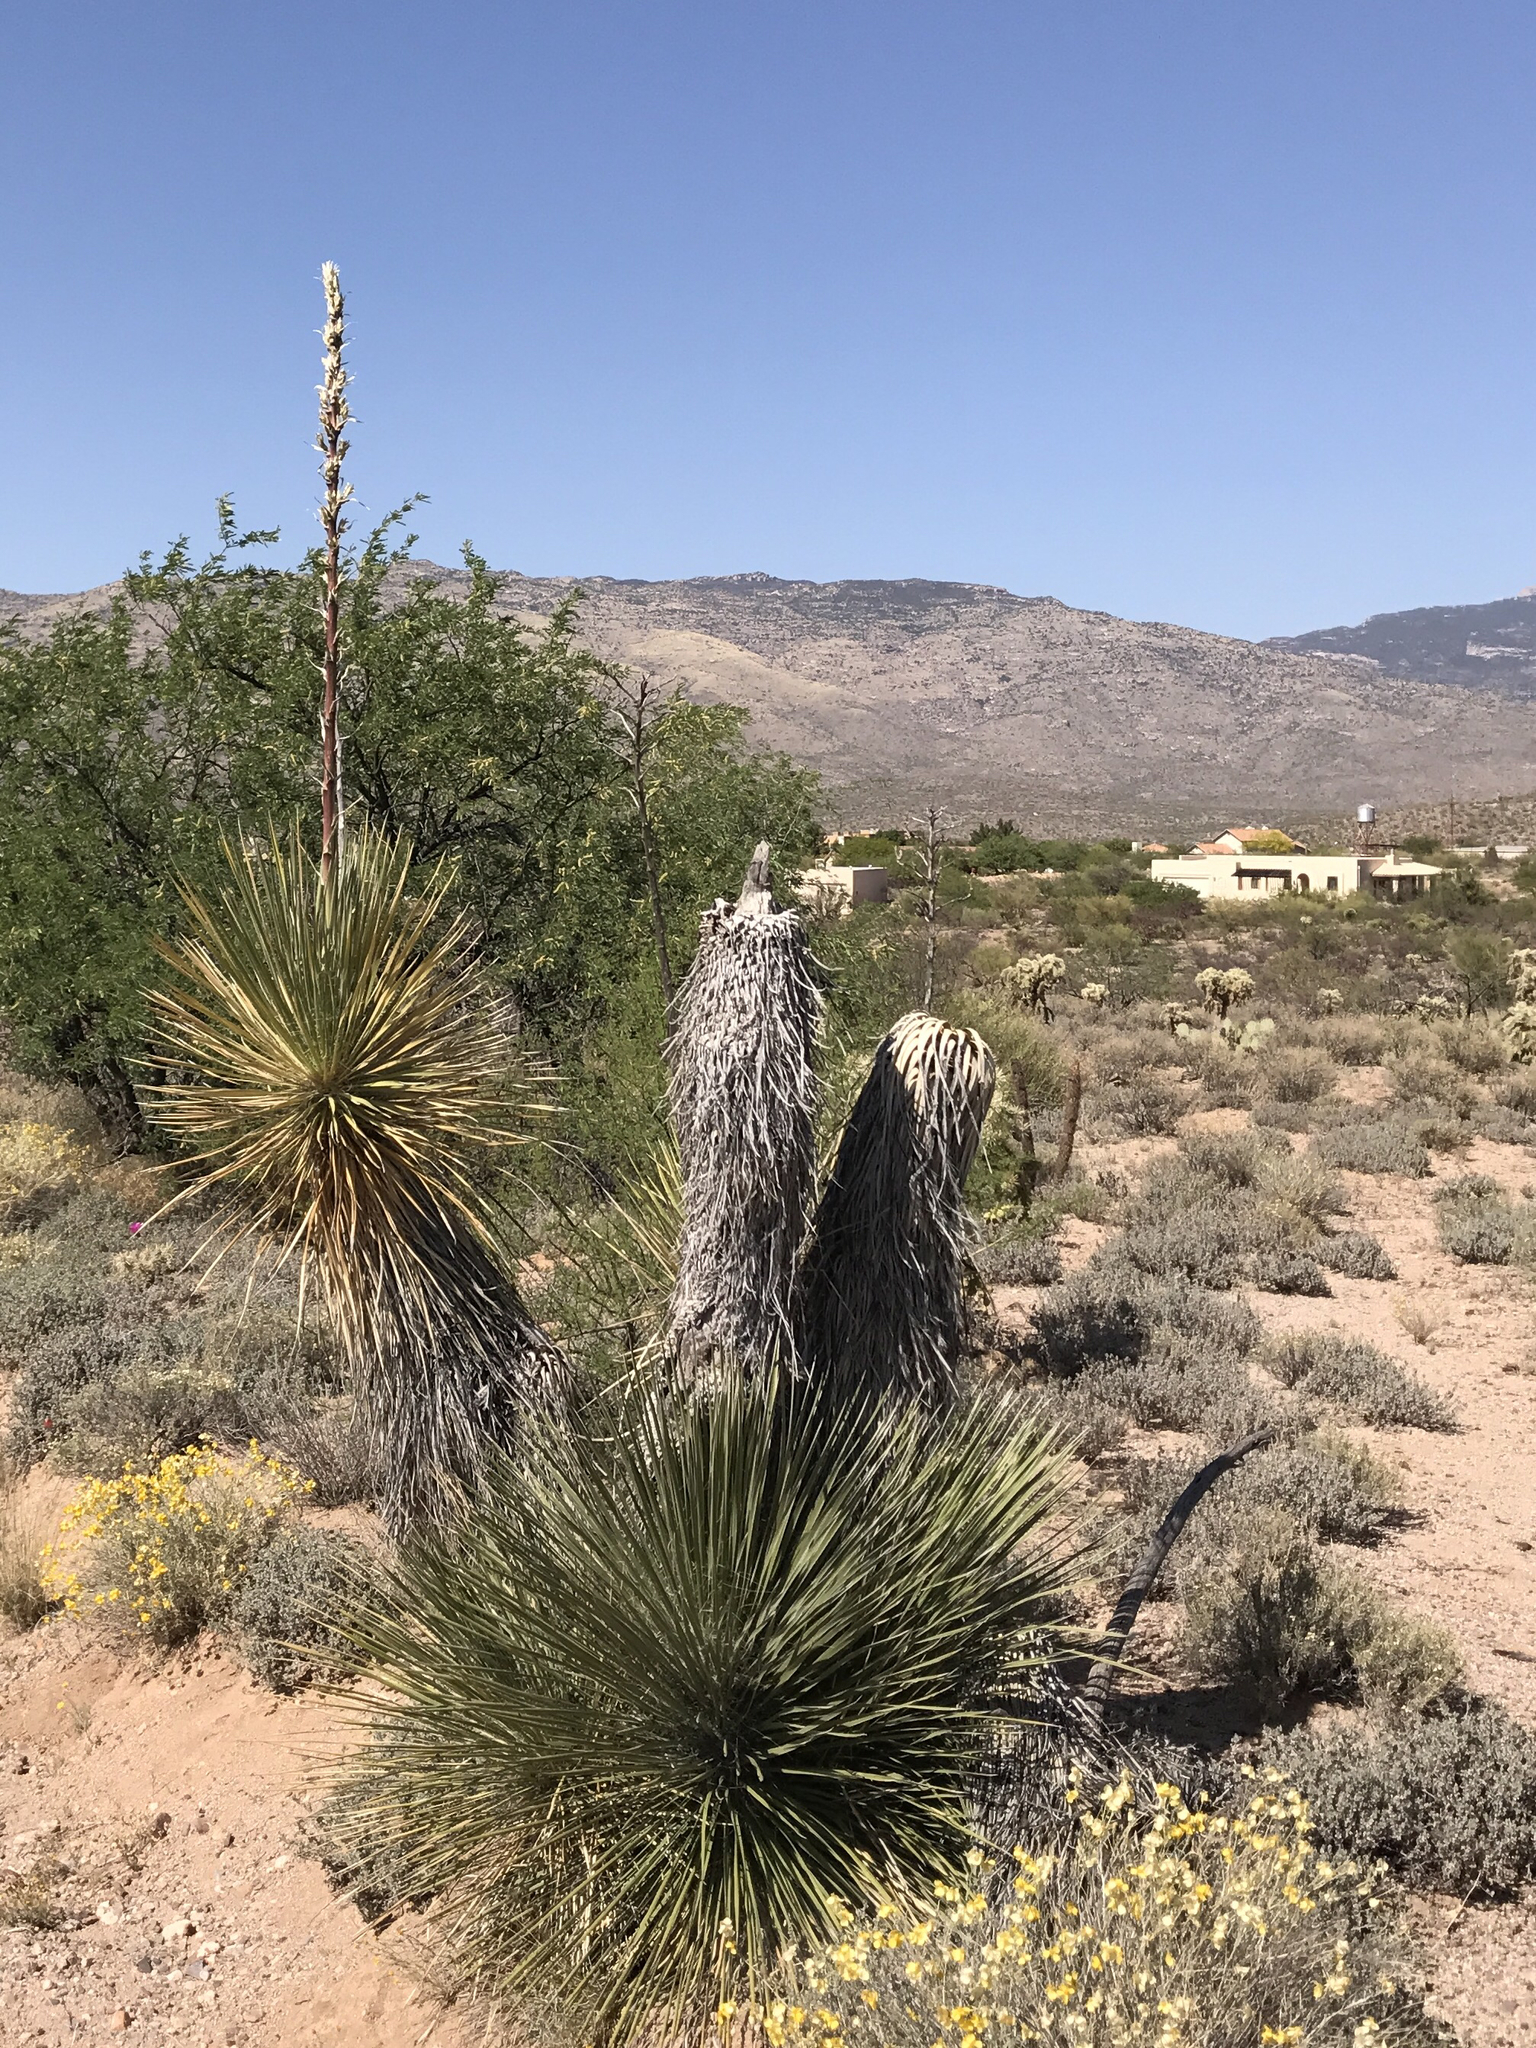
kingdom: Plantae
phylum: Tracheophyta
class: Liliopsida
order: Asparagales
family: Asparagaceae
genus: Yucca
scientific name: Yucca elata
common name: Palmella
